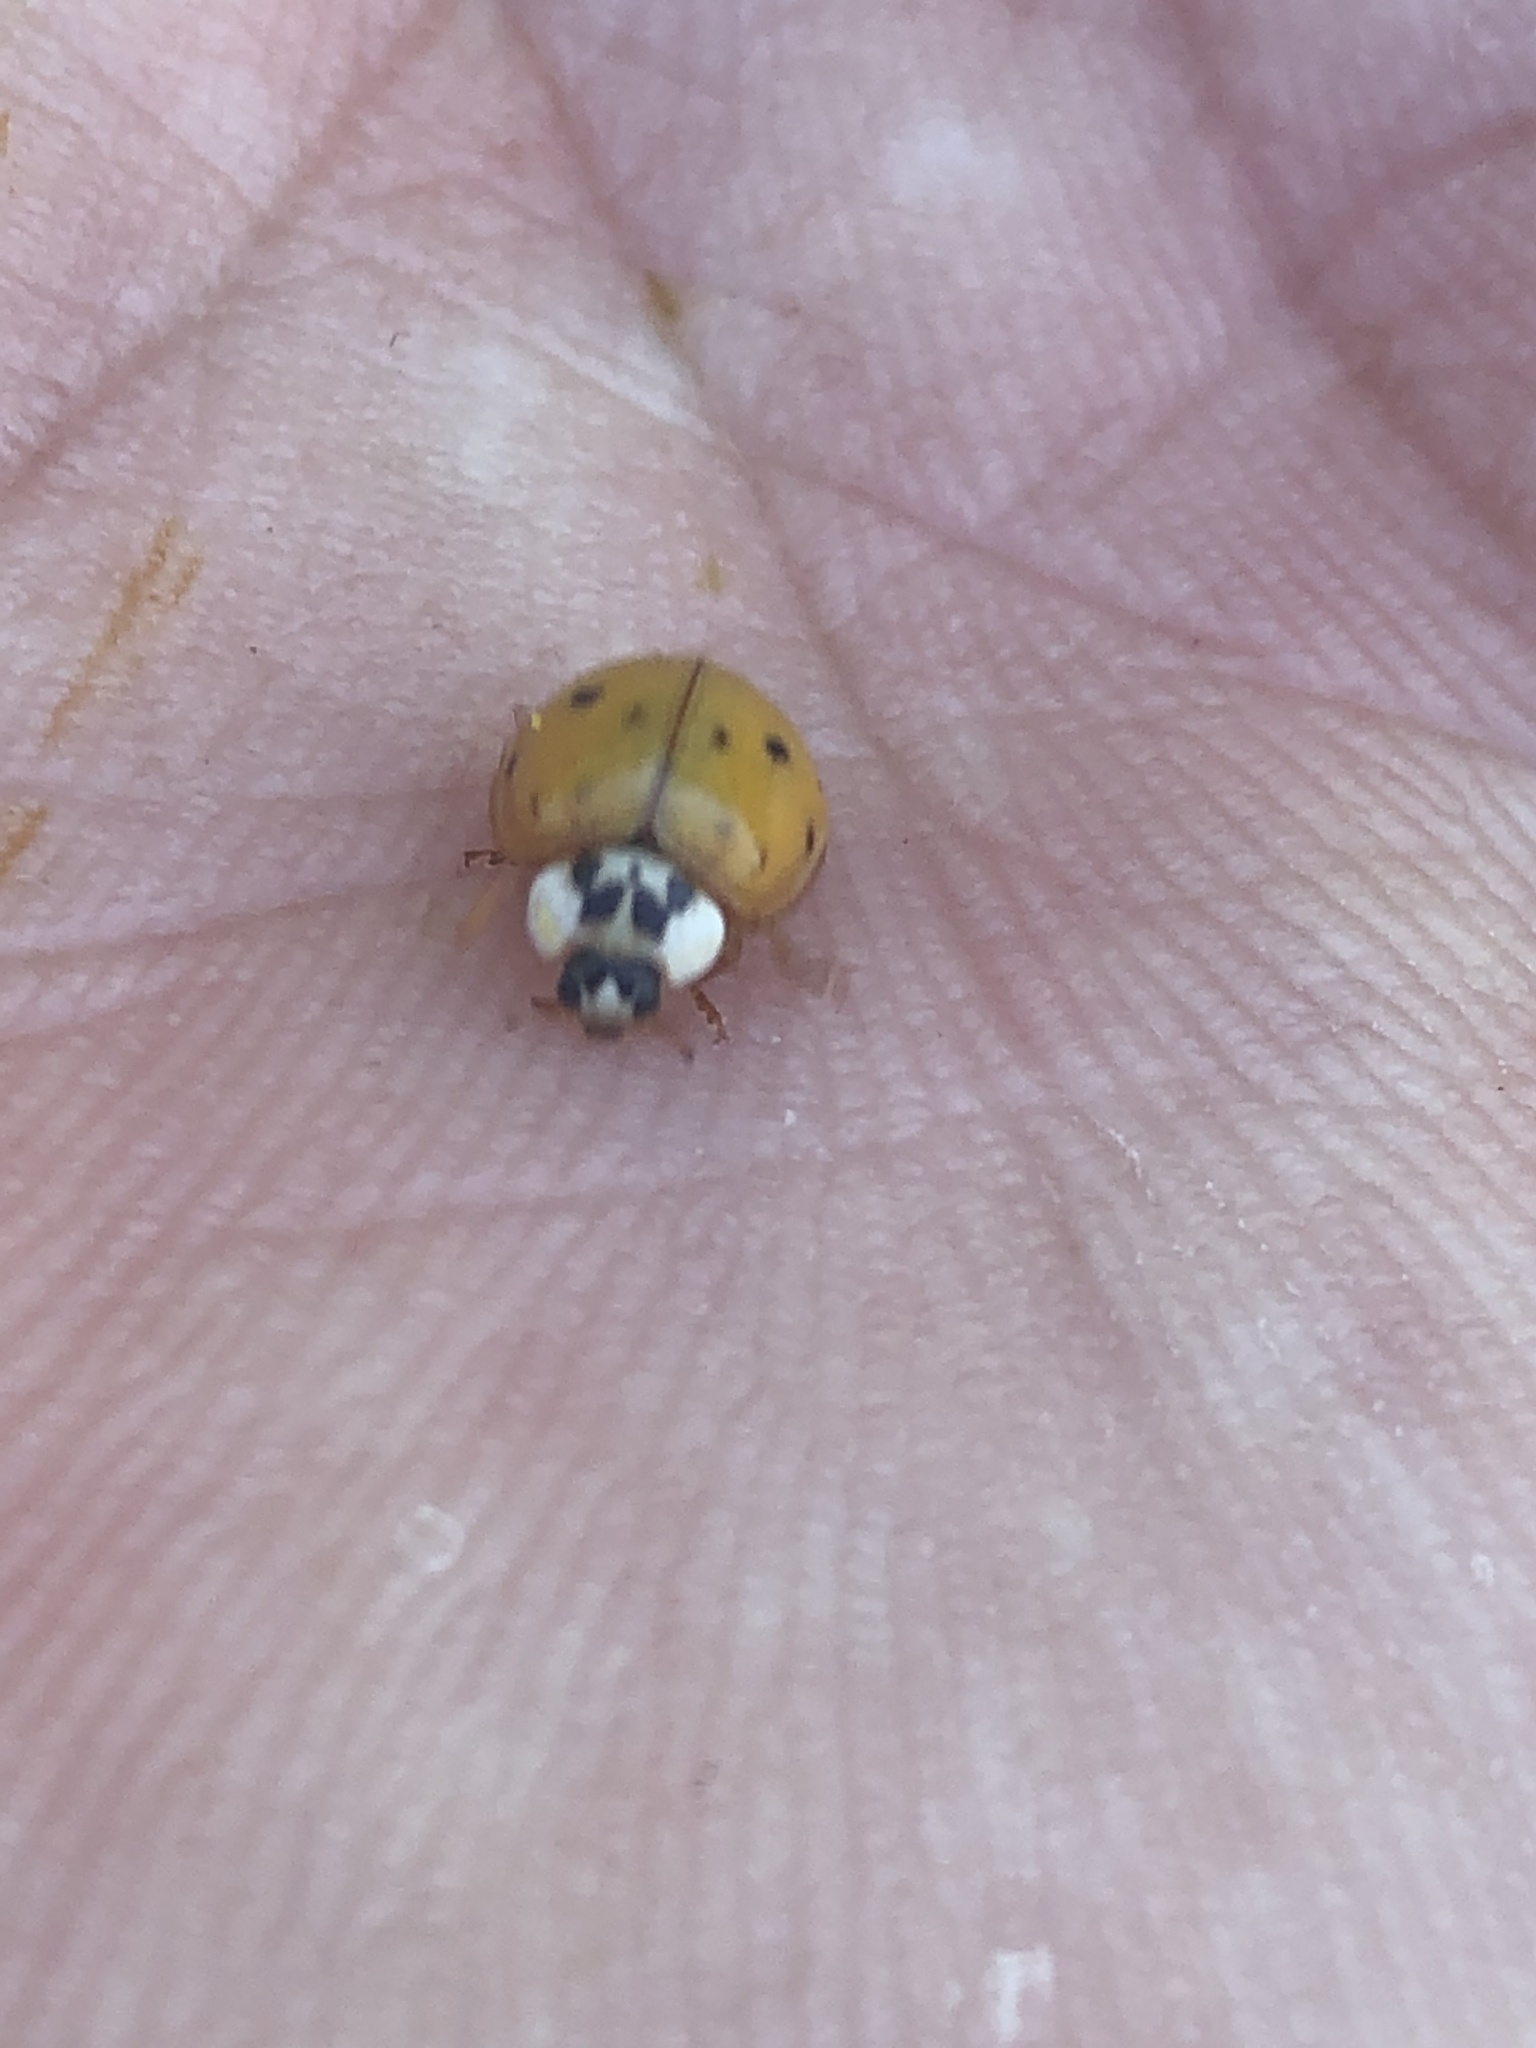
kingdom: Animalia
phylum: Arthropoda
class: Insecta
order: Coleoptera
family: Coccinellidae
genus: Harmonia
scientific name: Harmonia axyridis
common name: Harlequin ladybird
